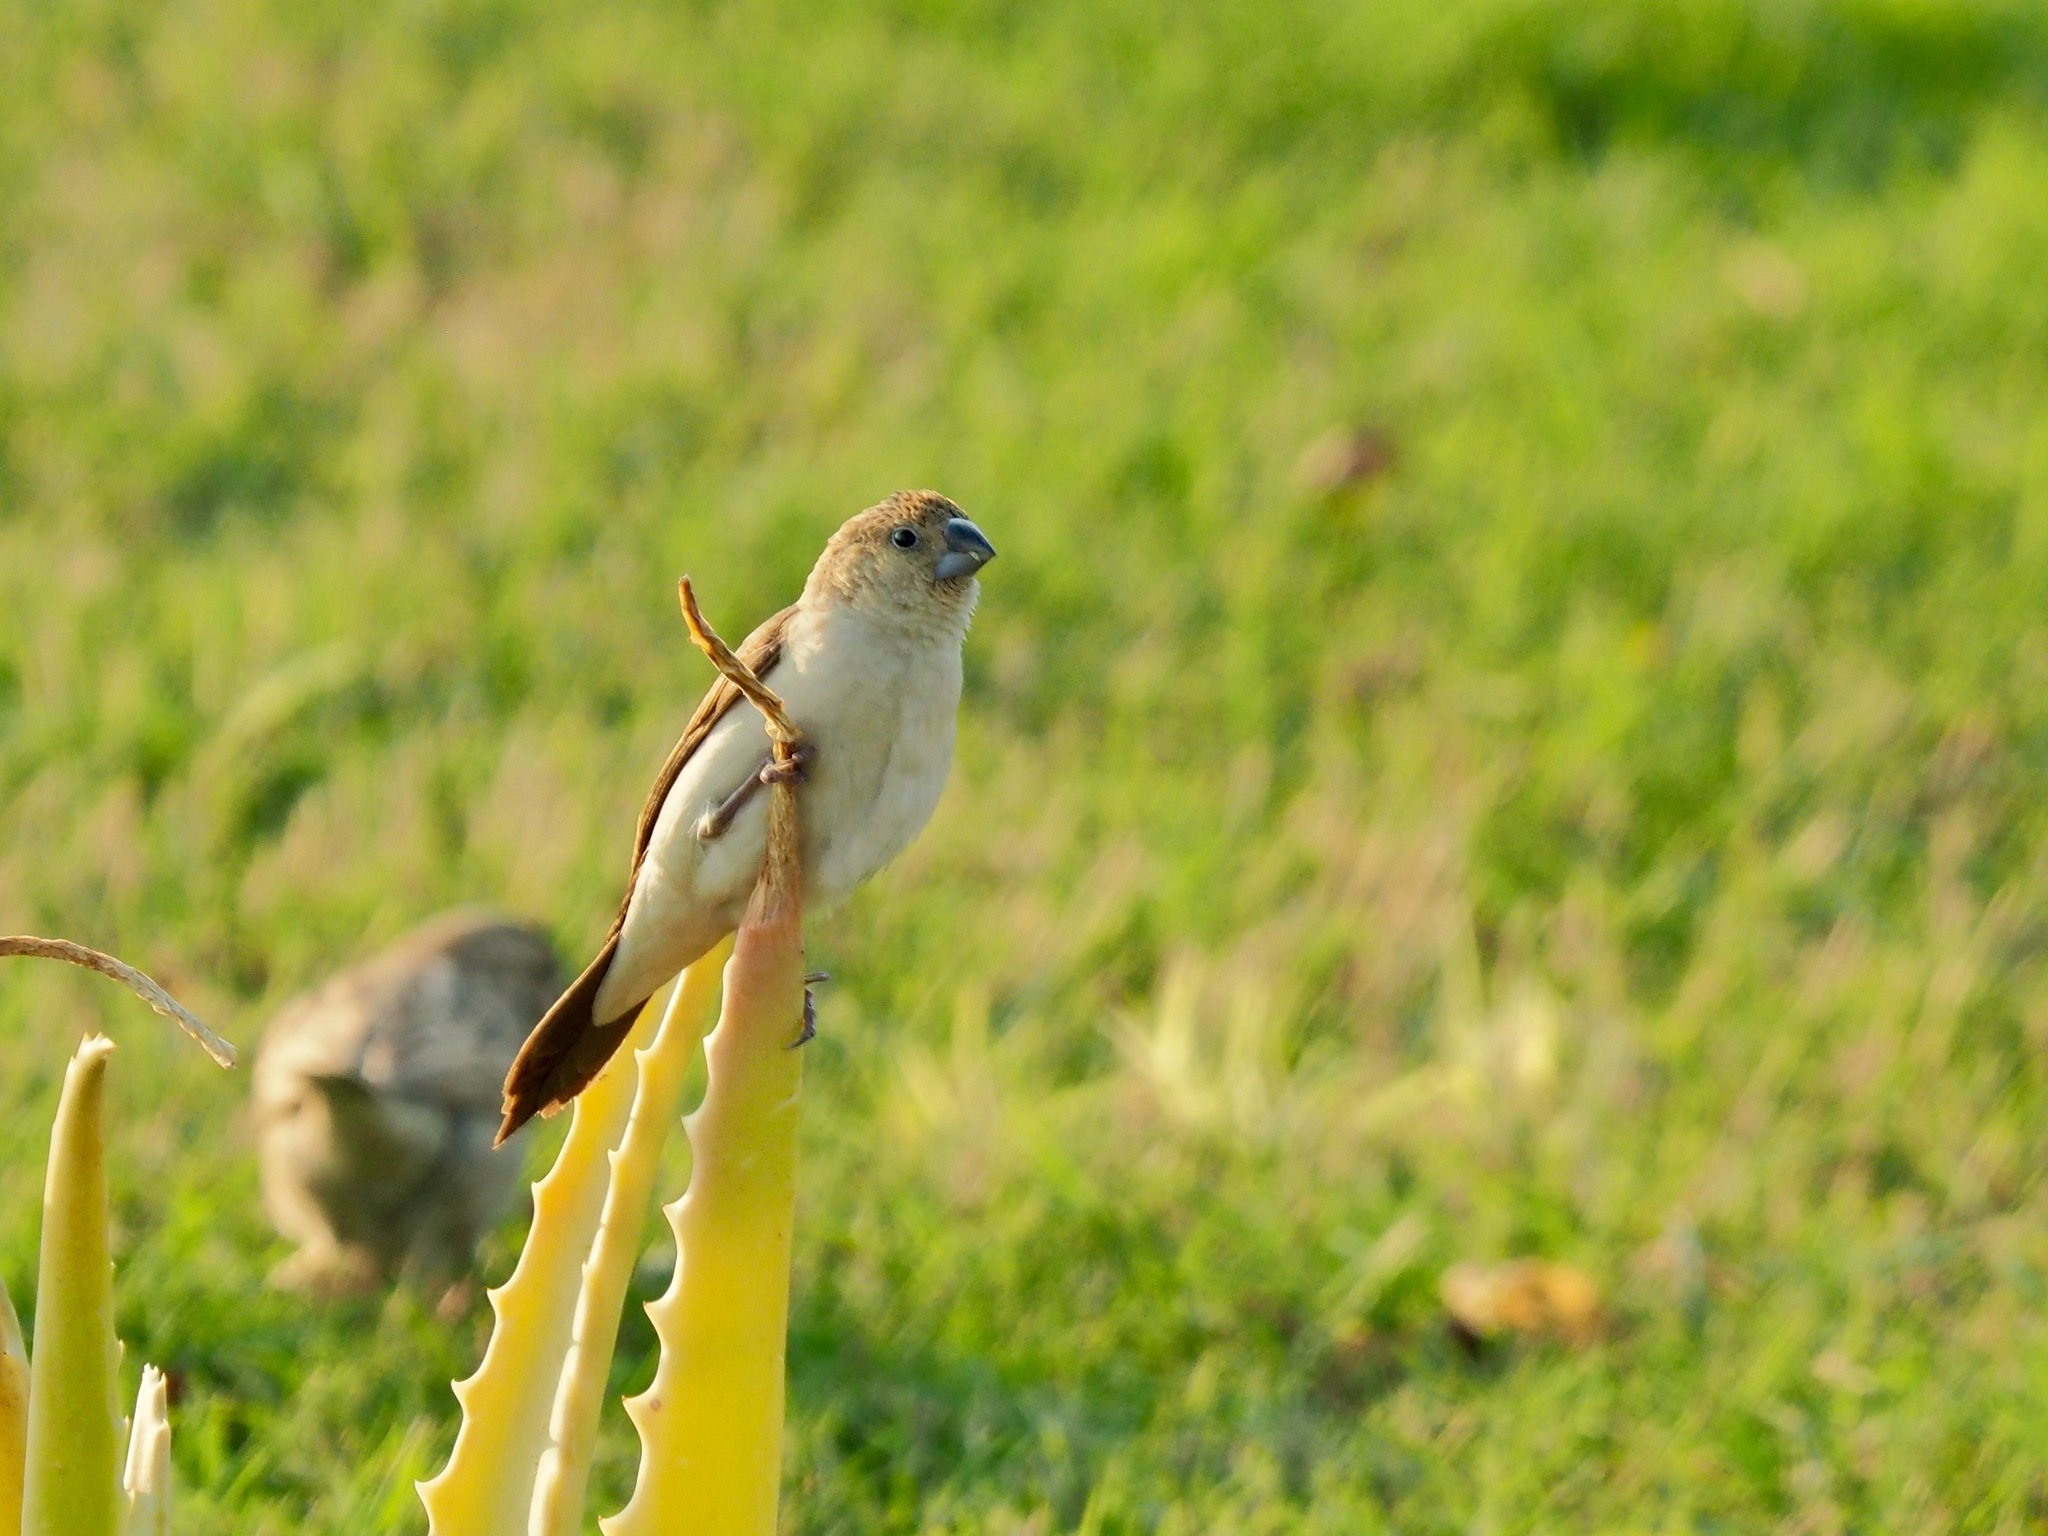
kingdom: Animalia
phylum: Chordata
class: Aves
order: Passeriformes
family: Estrildidae
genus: Euodice
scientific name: Euodice cantans
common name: African silverbill
